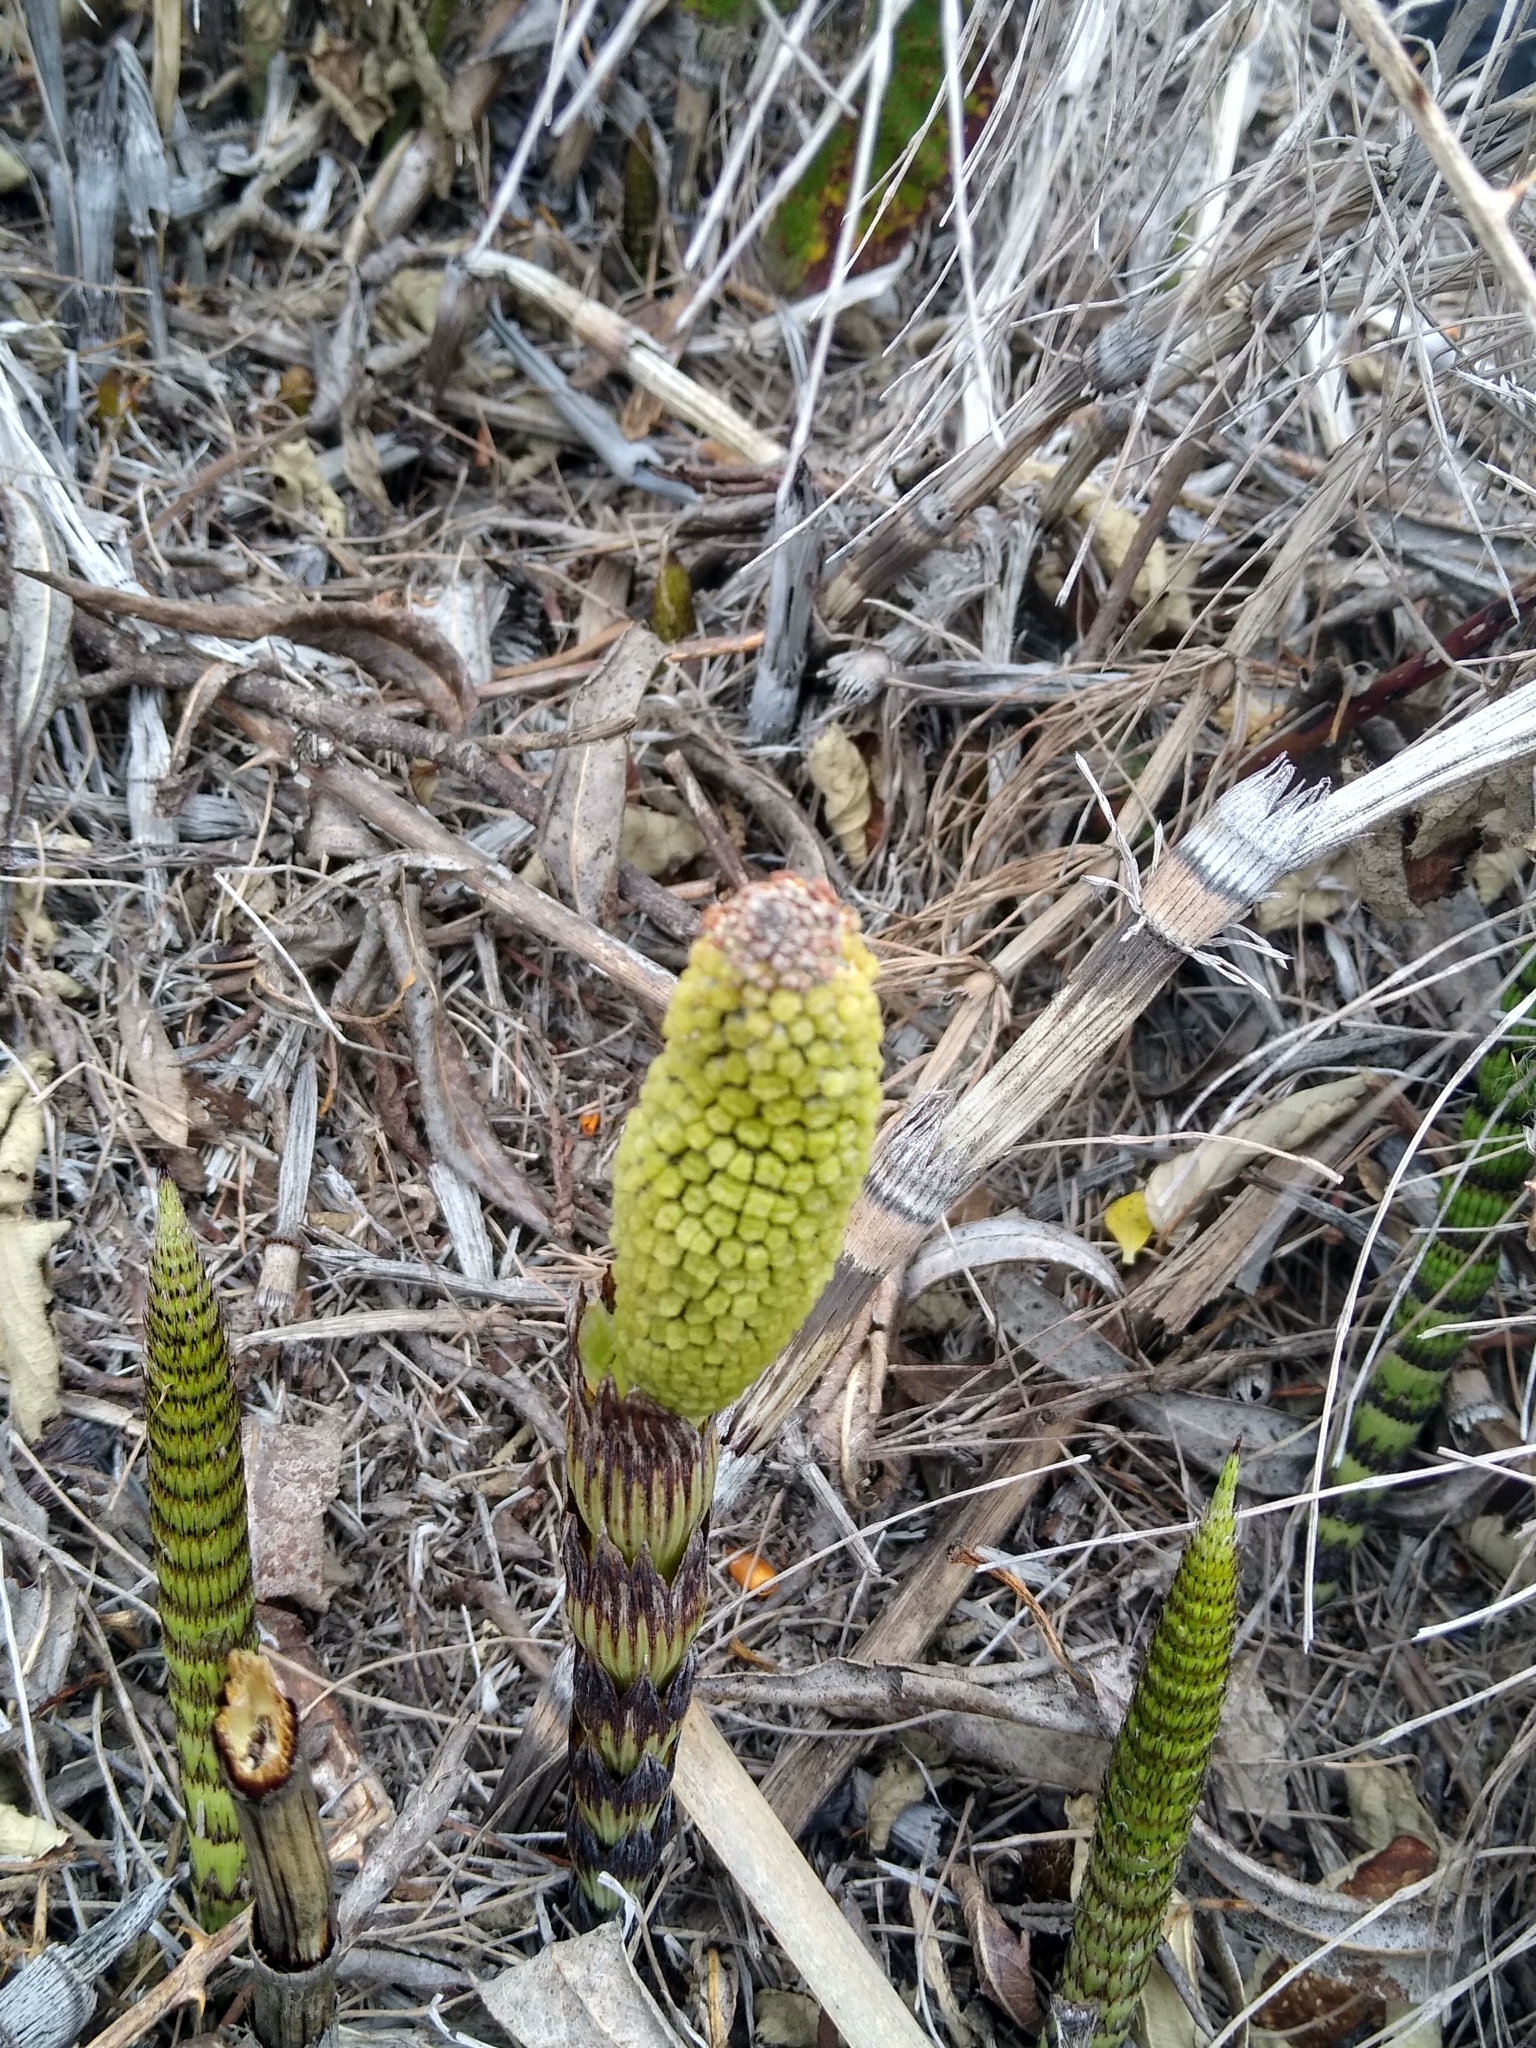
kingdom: Plantae
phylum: Tracheophyta
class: Polypodiopsida
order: Equisetales
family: Equisetaceae
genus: Equisetum
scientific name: Equisetum telmateia
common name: Great horsetail
